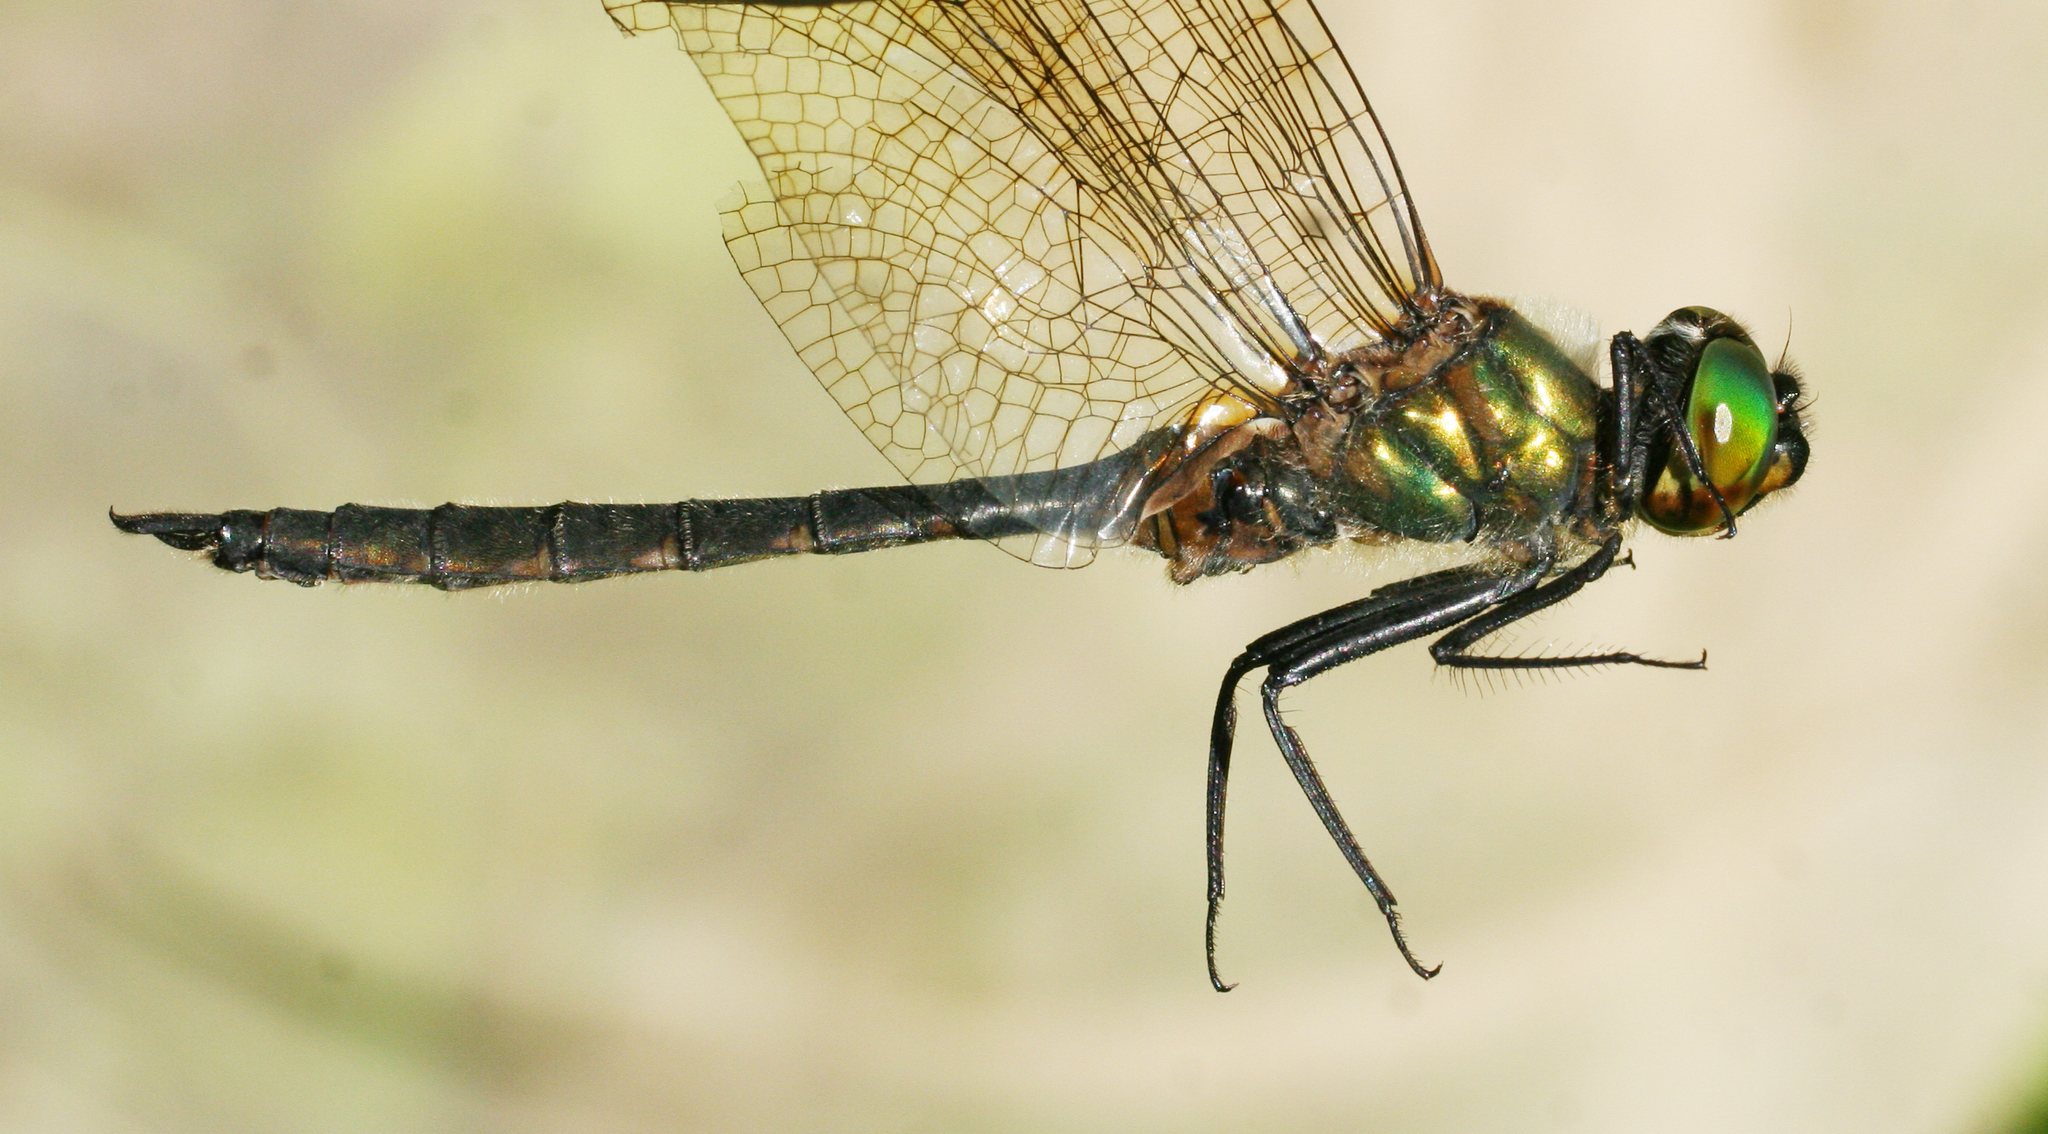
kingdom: Animalia
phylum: Arthropoda
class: Insecta
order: Odonata
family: Corduliidae
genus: Somatochlora
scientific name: Somatochlora flavomaculata
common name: Yellow-spotted emerald
